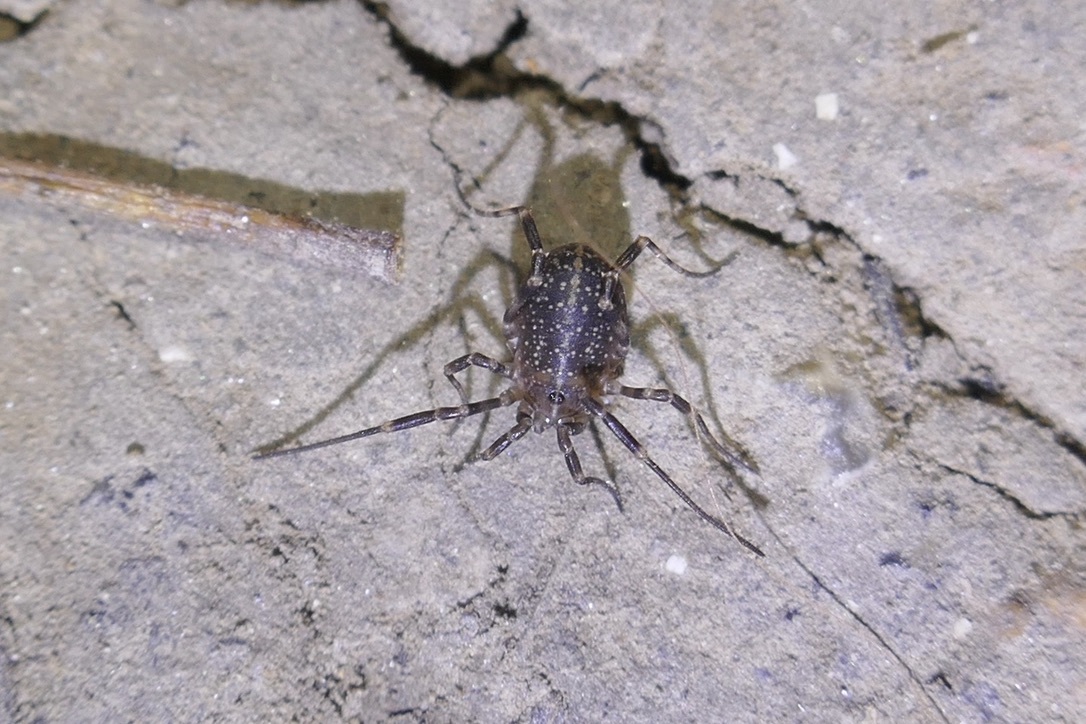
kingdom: Animalia
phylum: Arthropoda
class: Arachnida
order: Opiliones
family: Phalangiidae
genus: Egaenus
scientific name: Egaenus convexus
